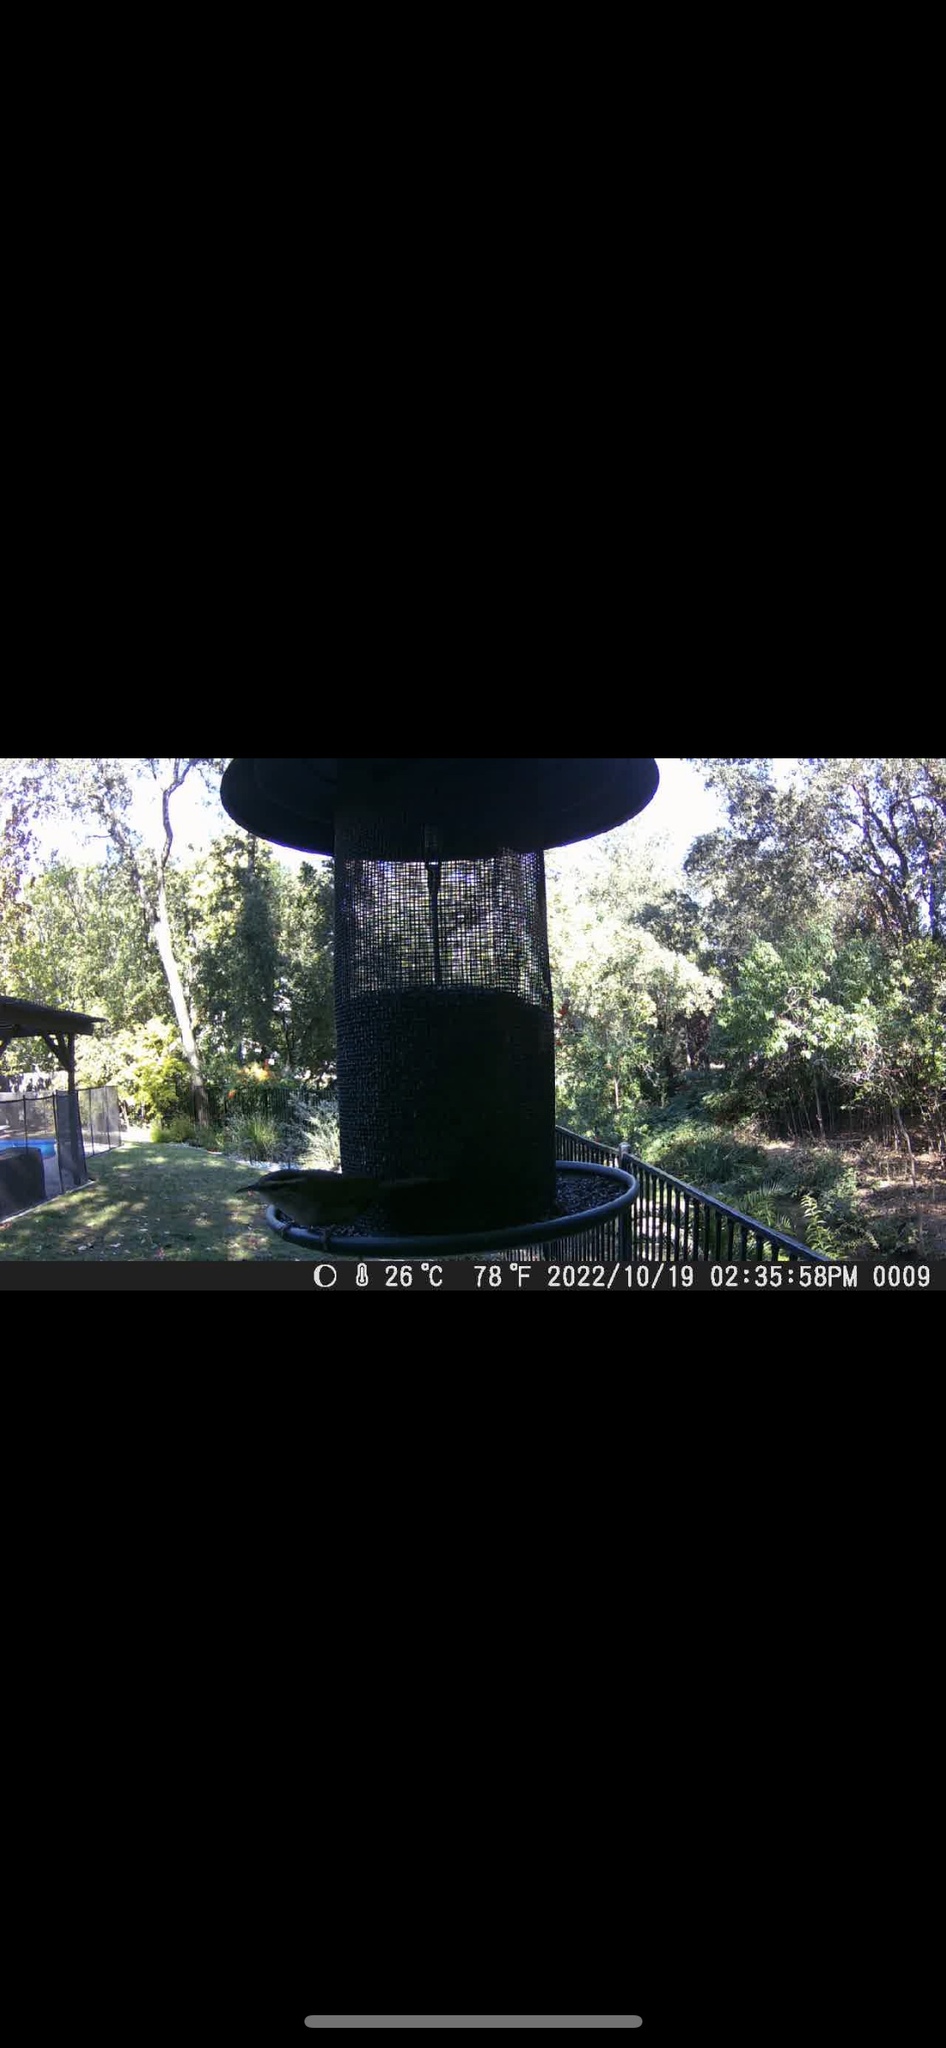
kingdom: Animalia
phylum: Chordata
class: Aves
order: Passeriformes
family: Troglodytidae
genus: Thryomanes
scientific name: Thryomanes bewickii
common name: Bewick's wren
